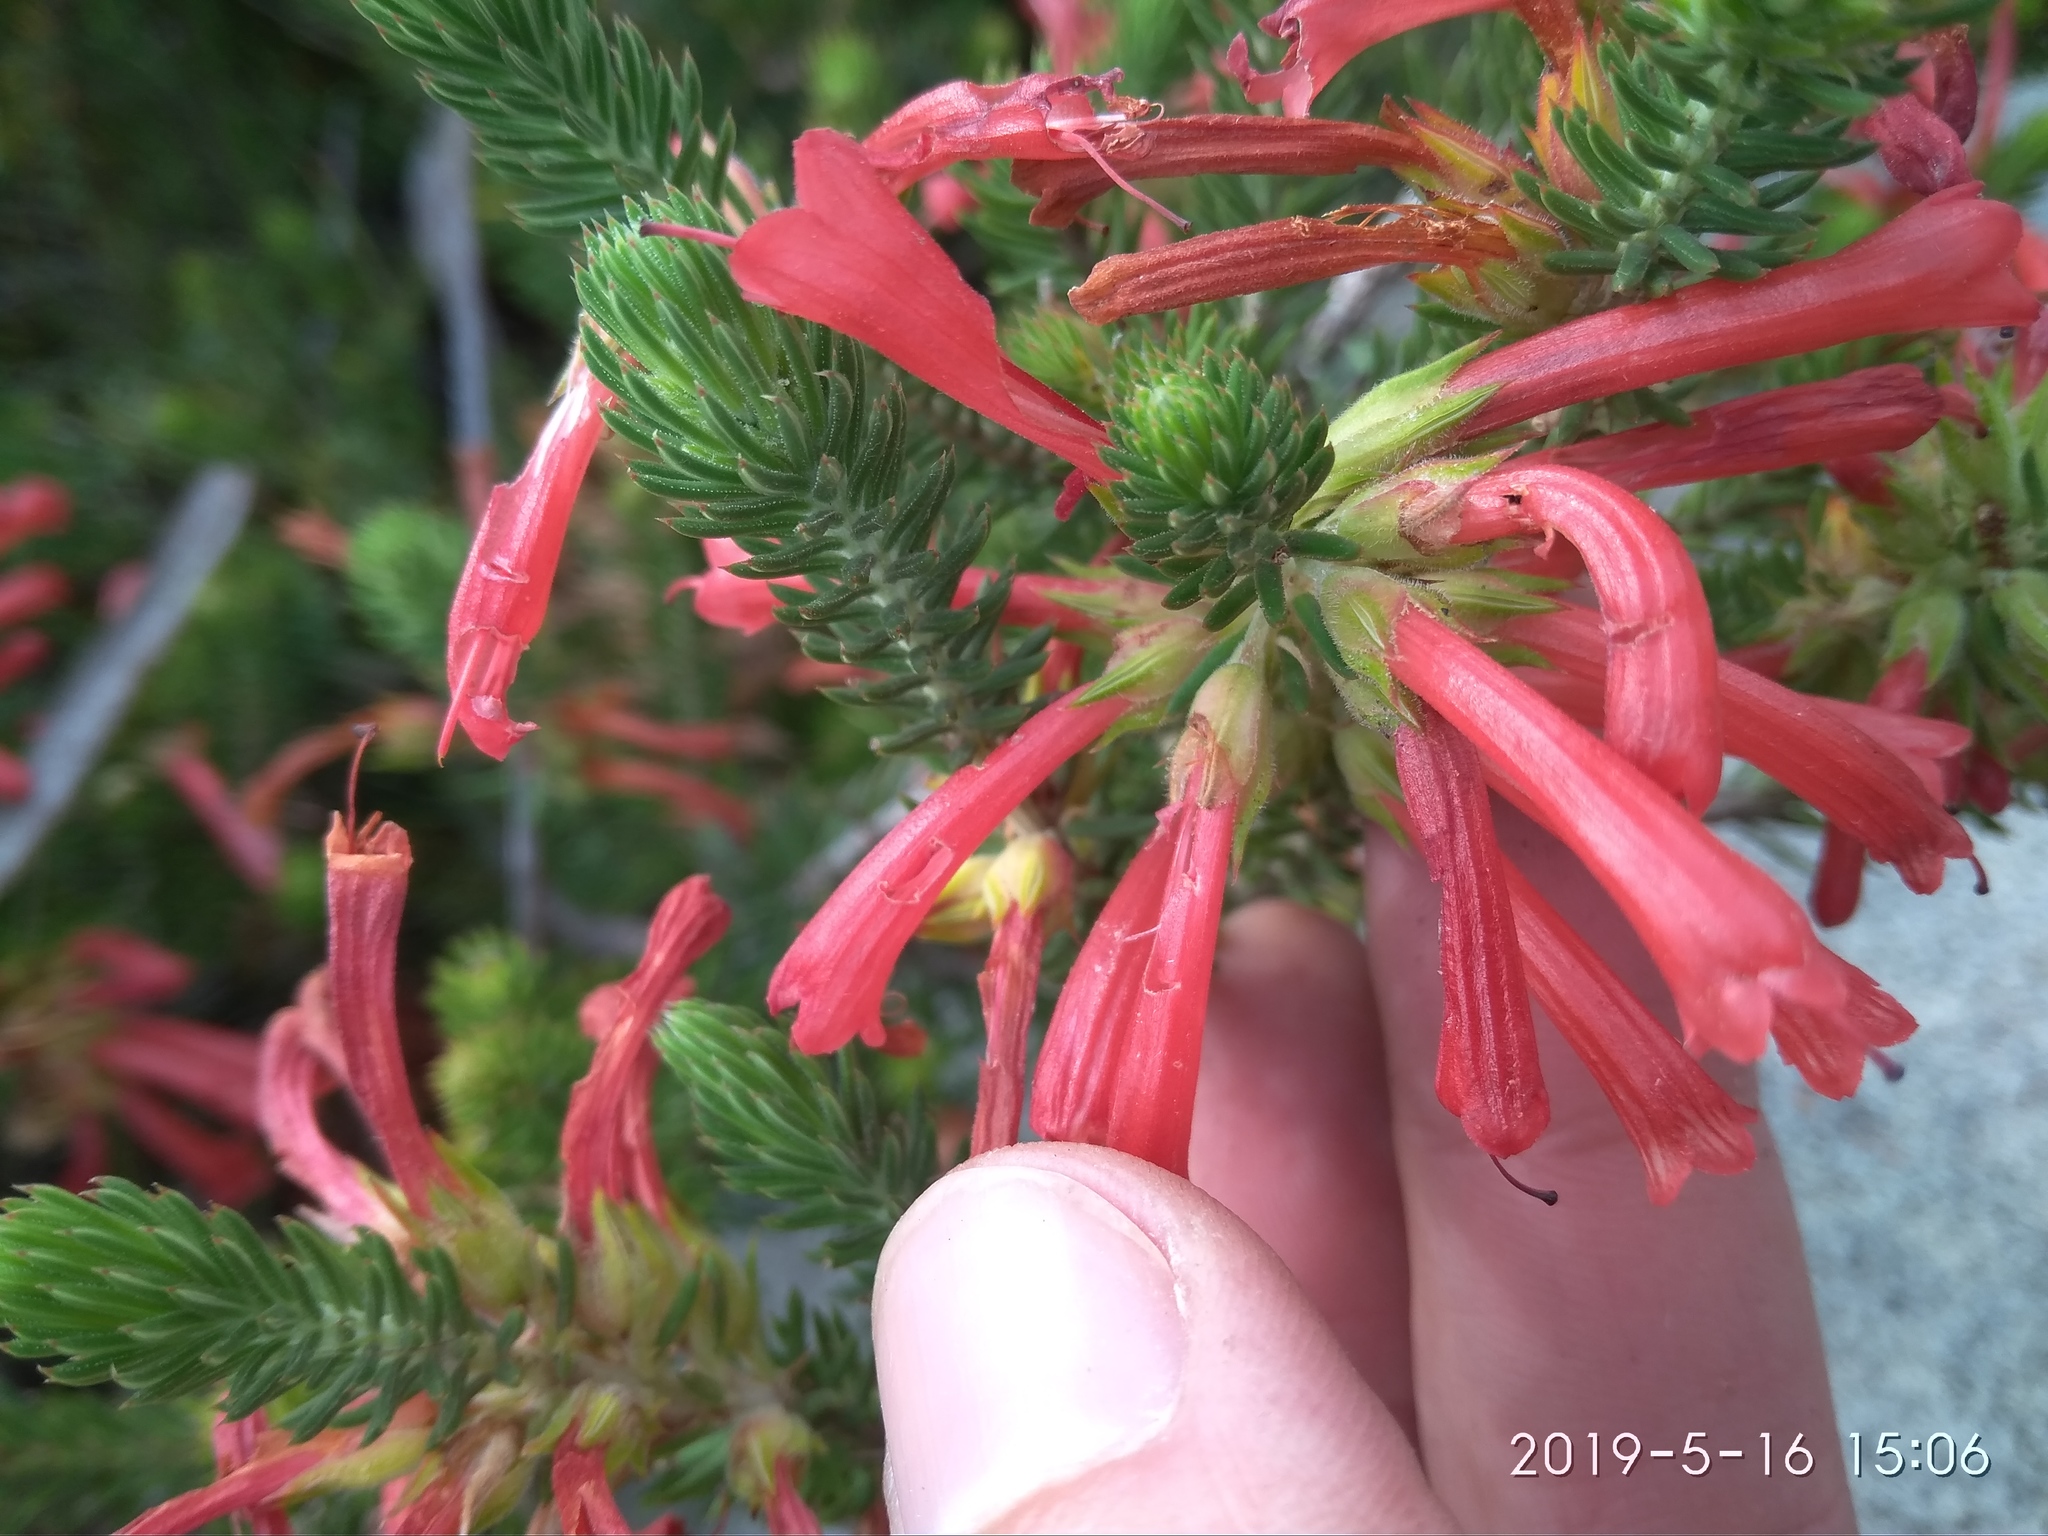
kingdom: Plantae
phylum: Tracheophyta
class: Magnoliopsida
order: Ericales
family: Ericaceae
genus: Erica
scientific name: Erica abietina
